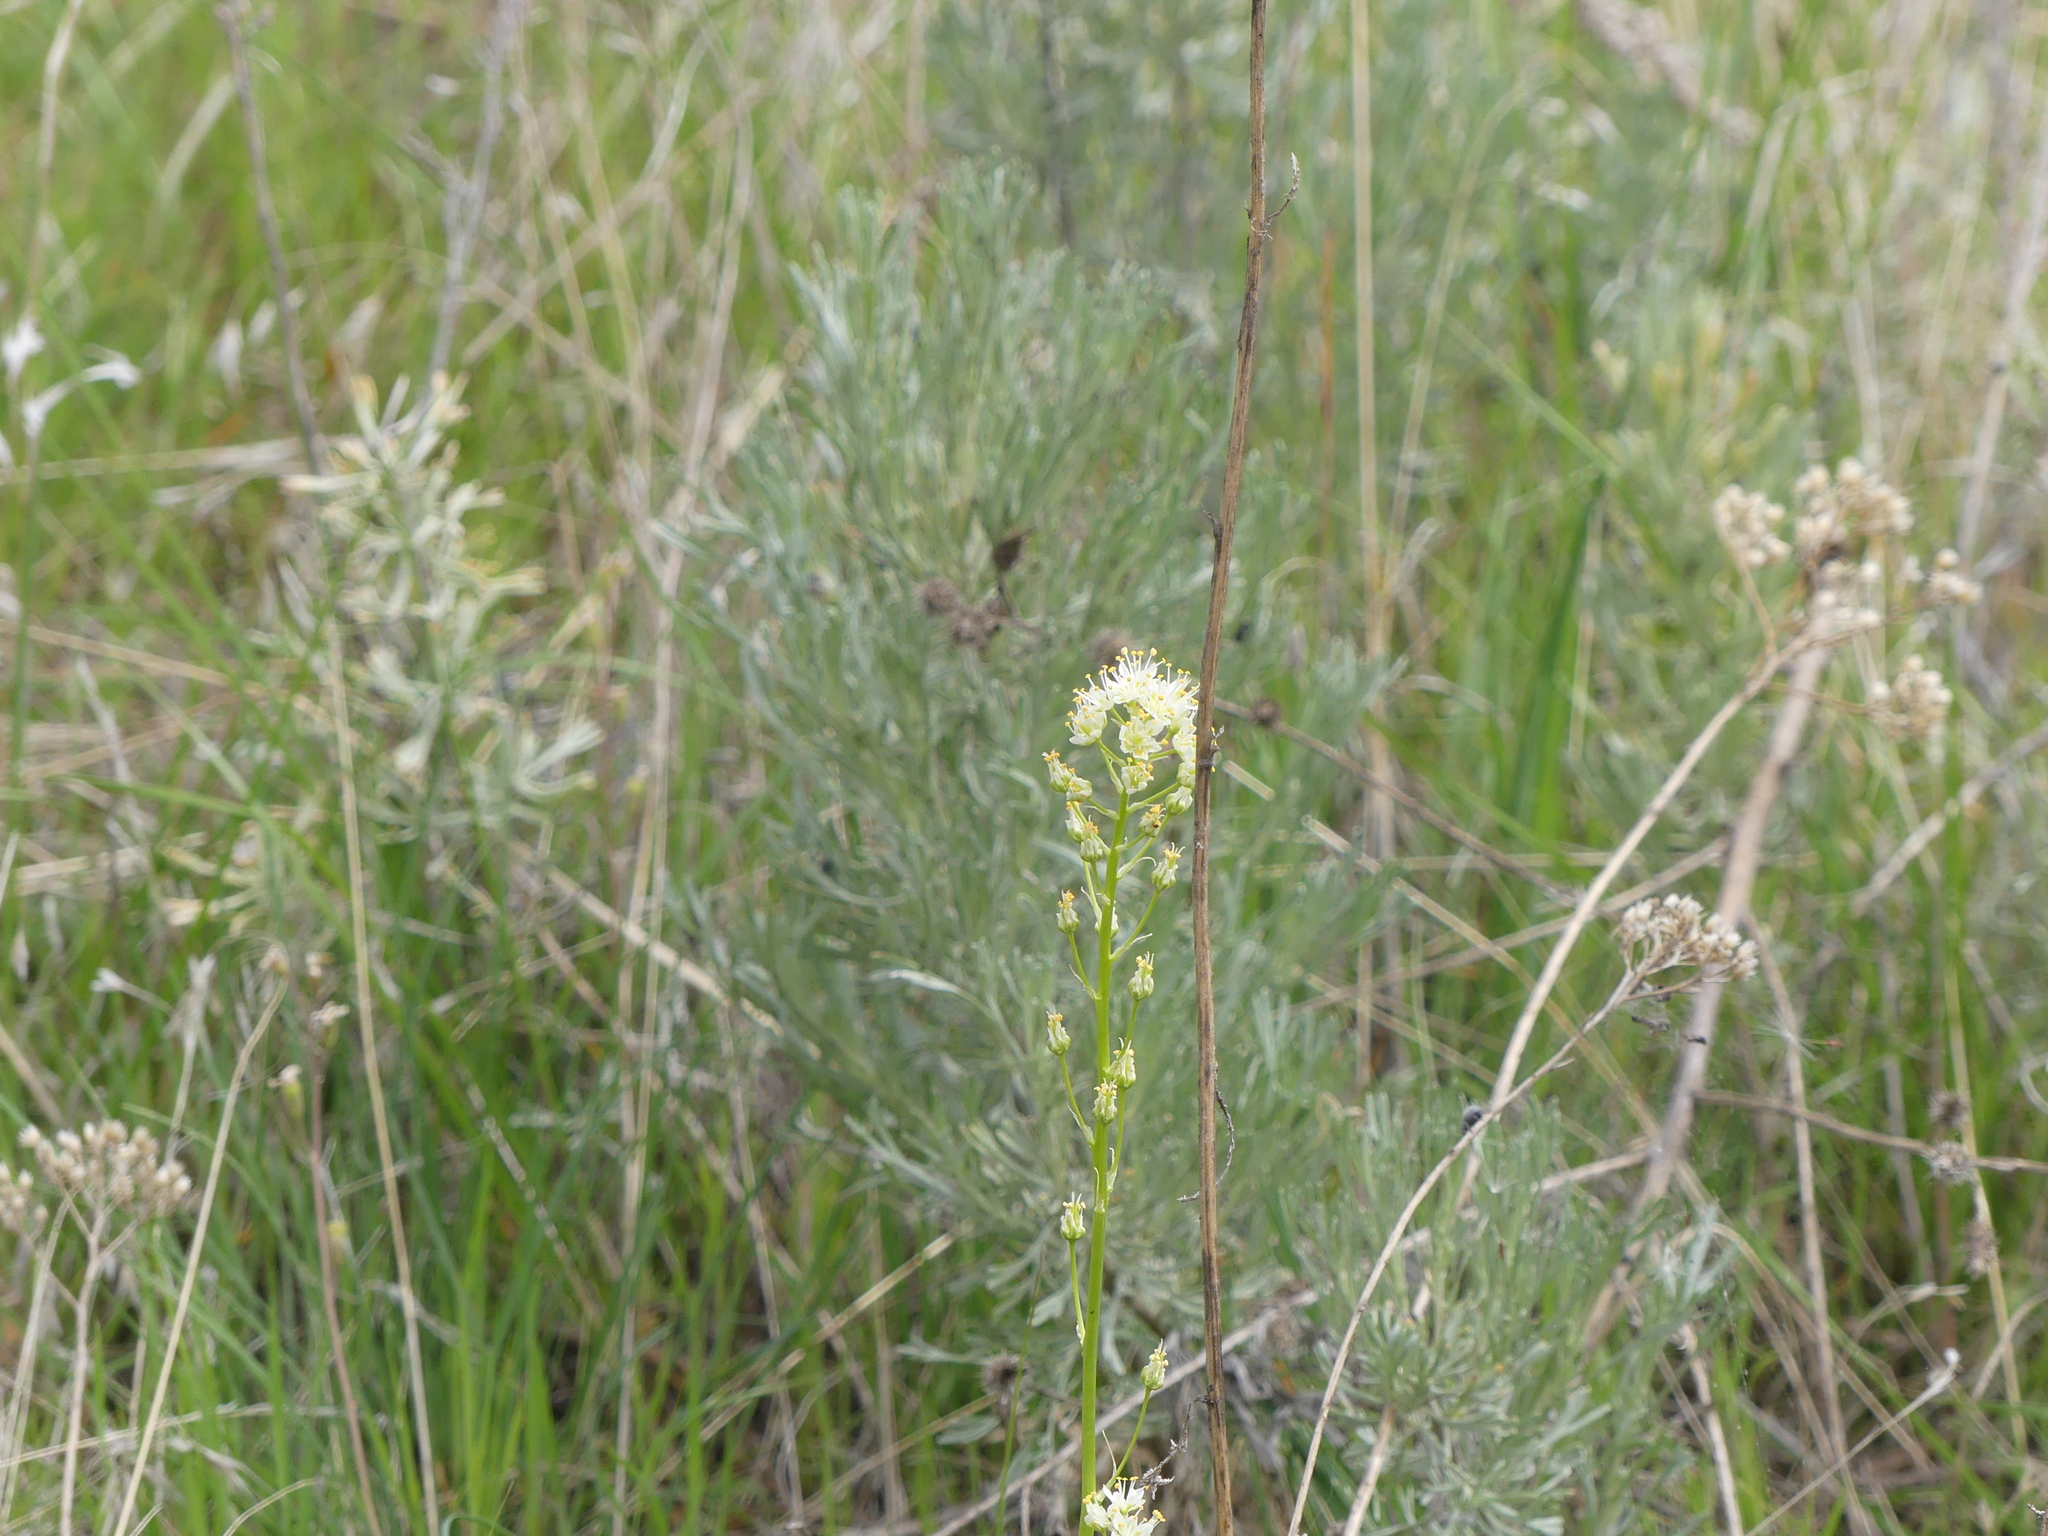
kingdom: Plantae
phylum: Tracheophyta
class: Liliopsida
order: Liliales
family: Melanthiaceae
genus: Toxicoscordion
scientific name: Toxicoscordion paniculatum
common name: Foothill death camas
